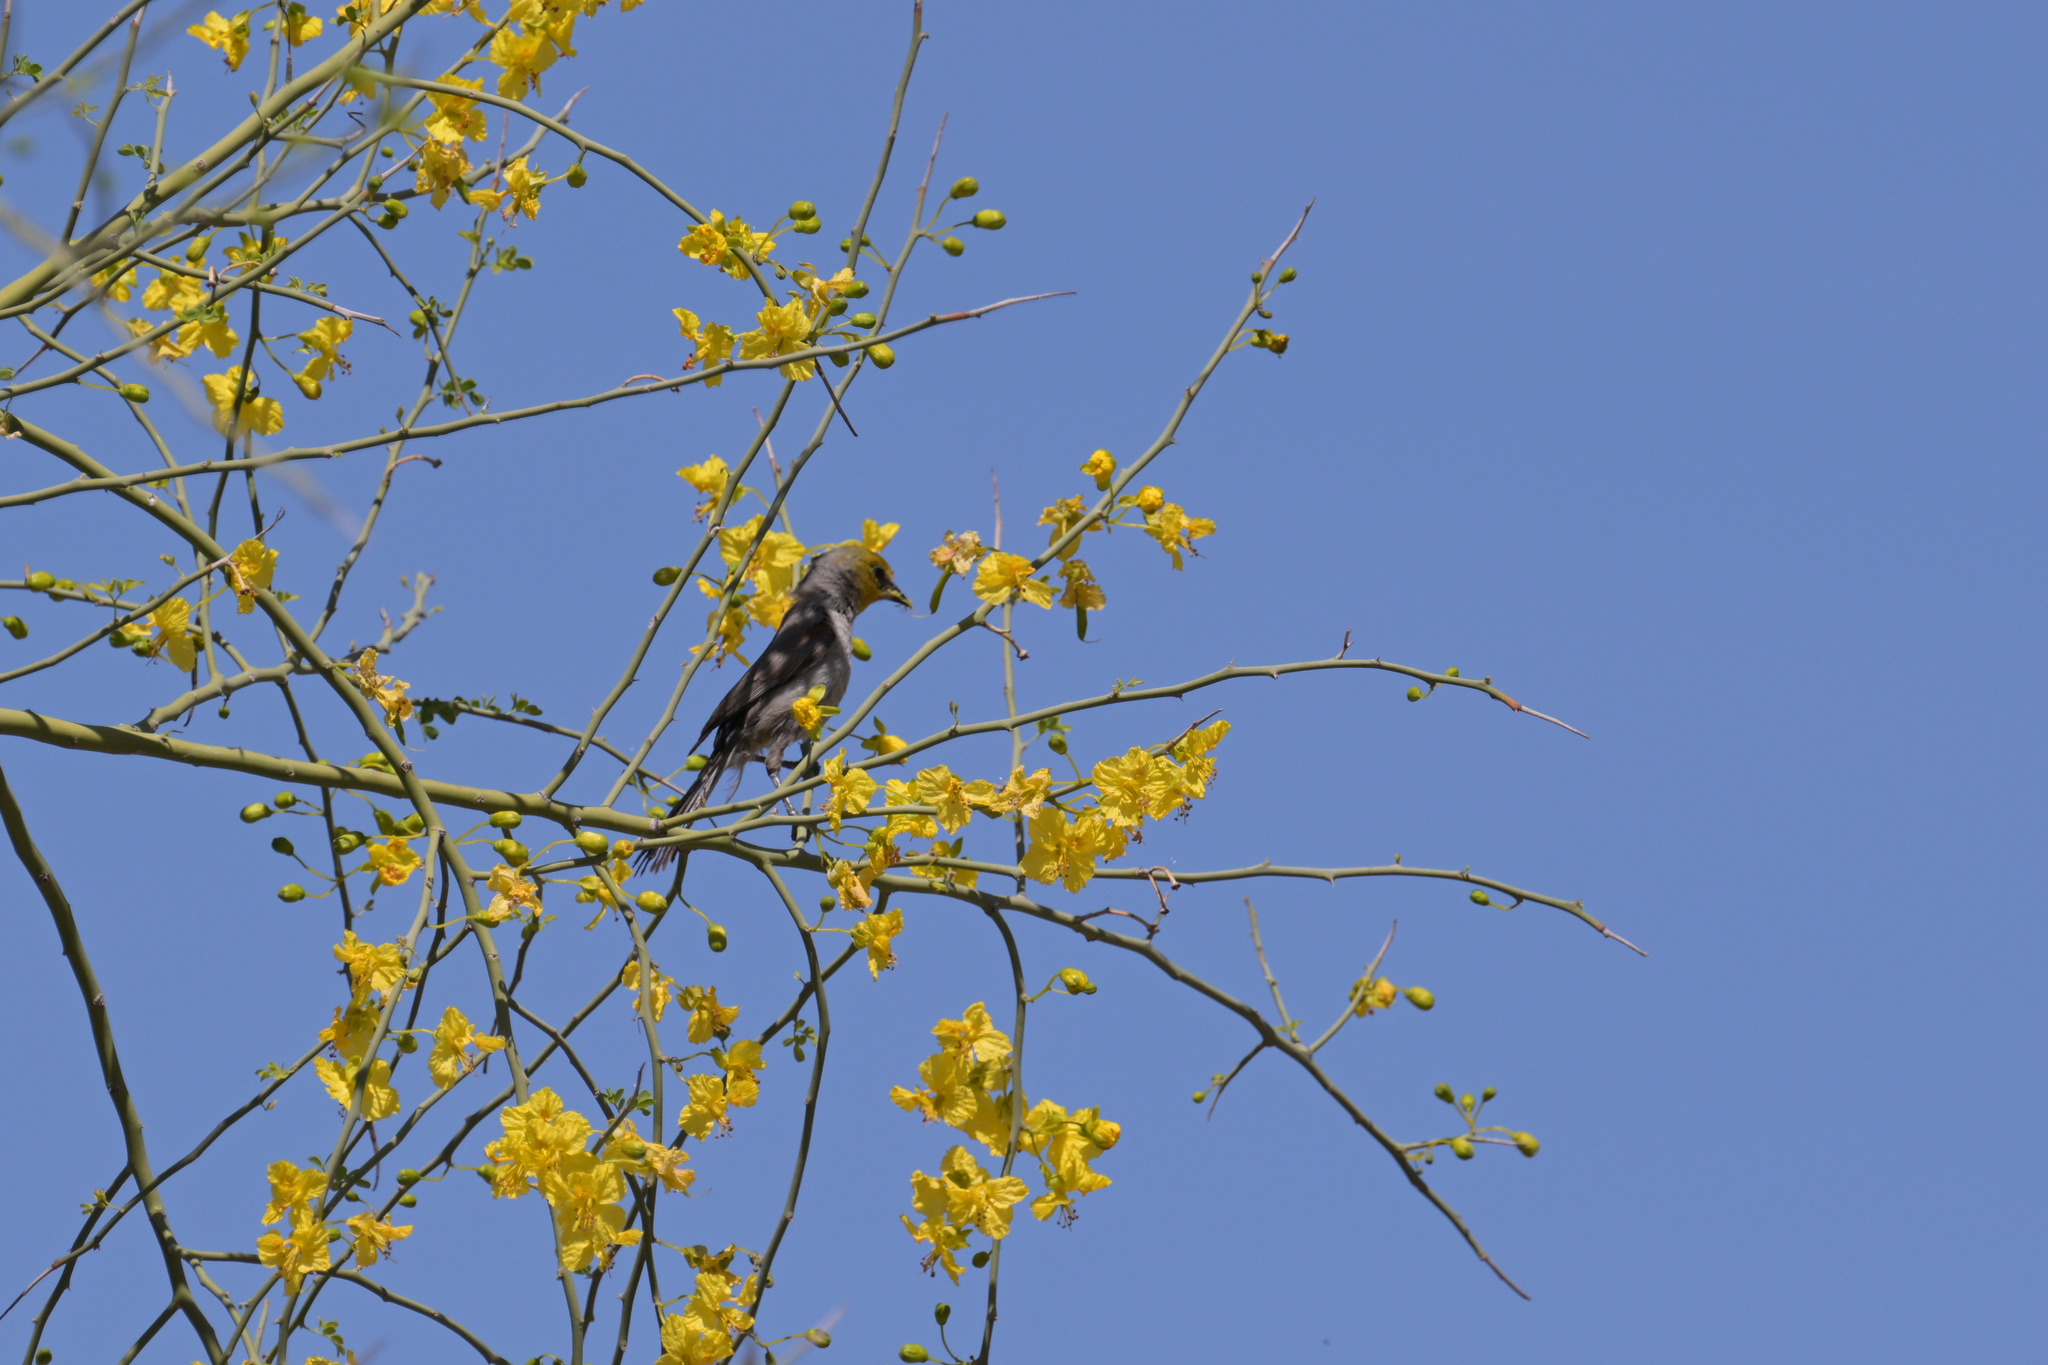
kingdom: Animalia
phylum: Chordata
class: Aves
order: Passeriformes
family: Remizidae
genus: Auriparus
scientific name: Auriparus flaviceps
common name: Verdin
